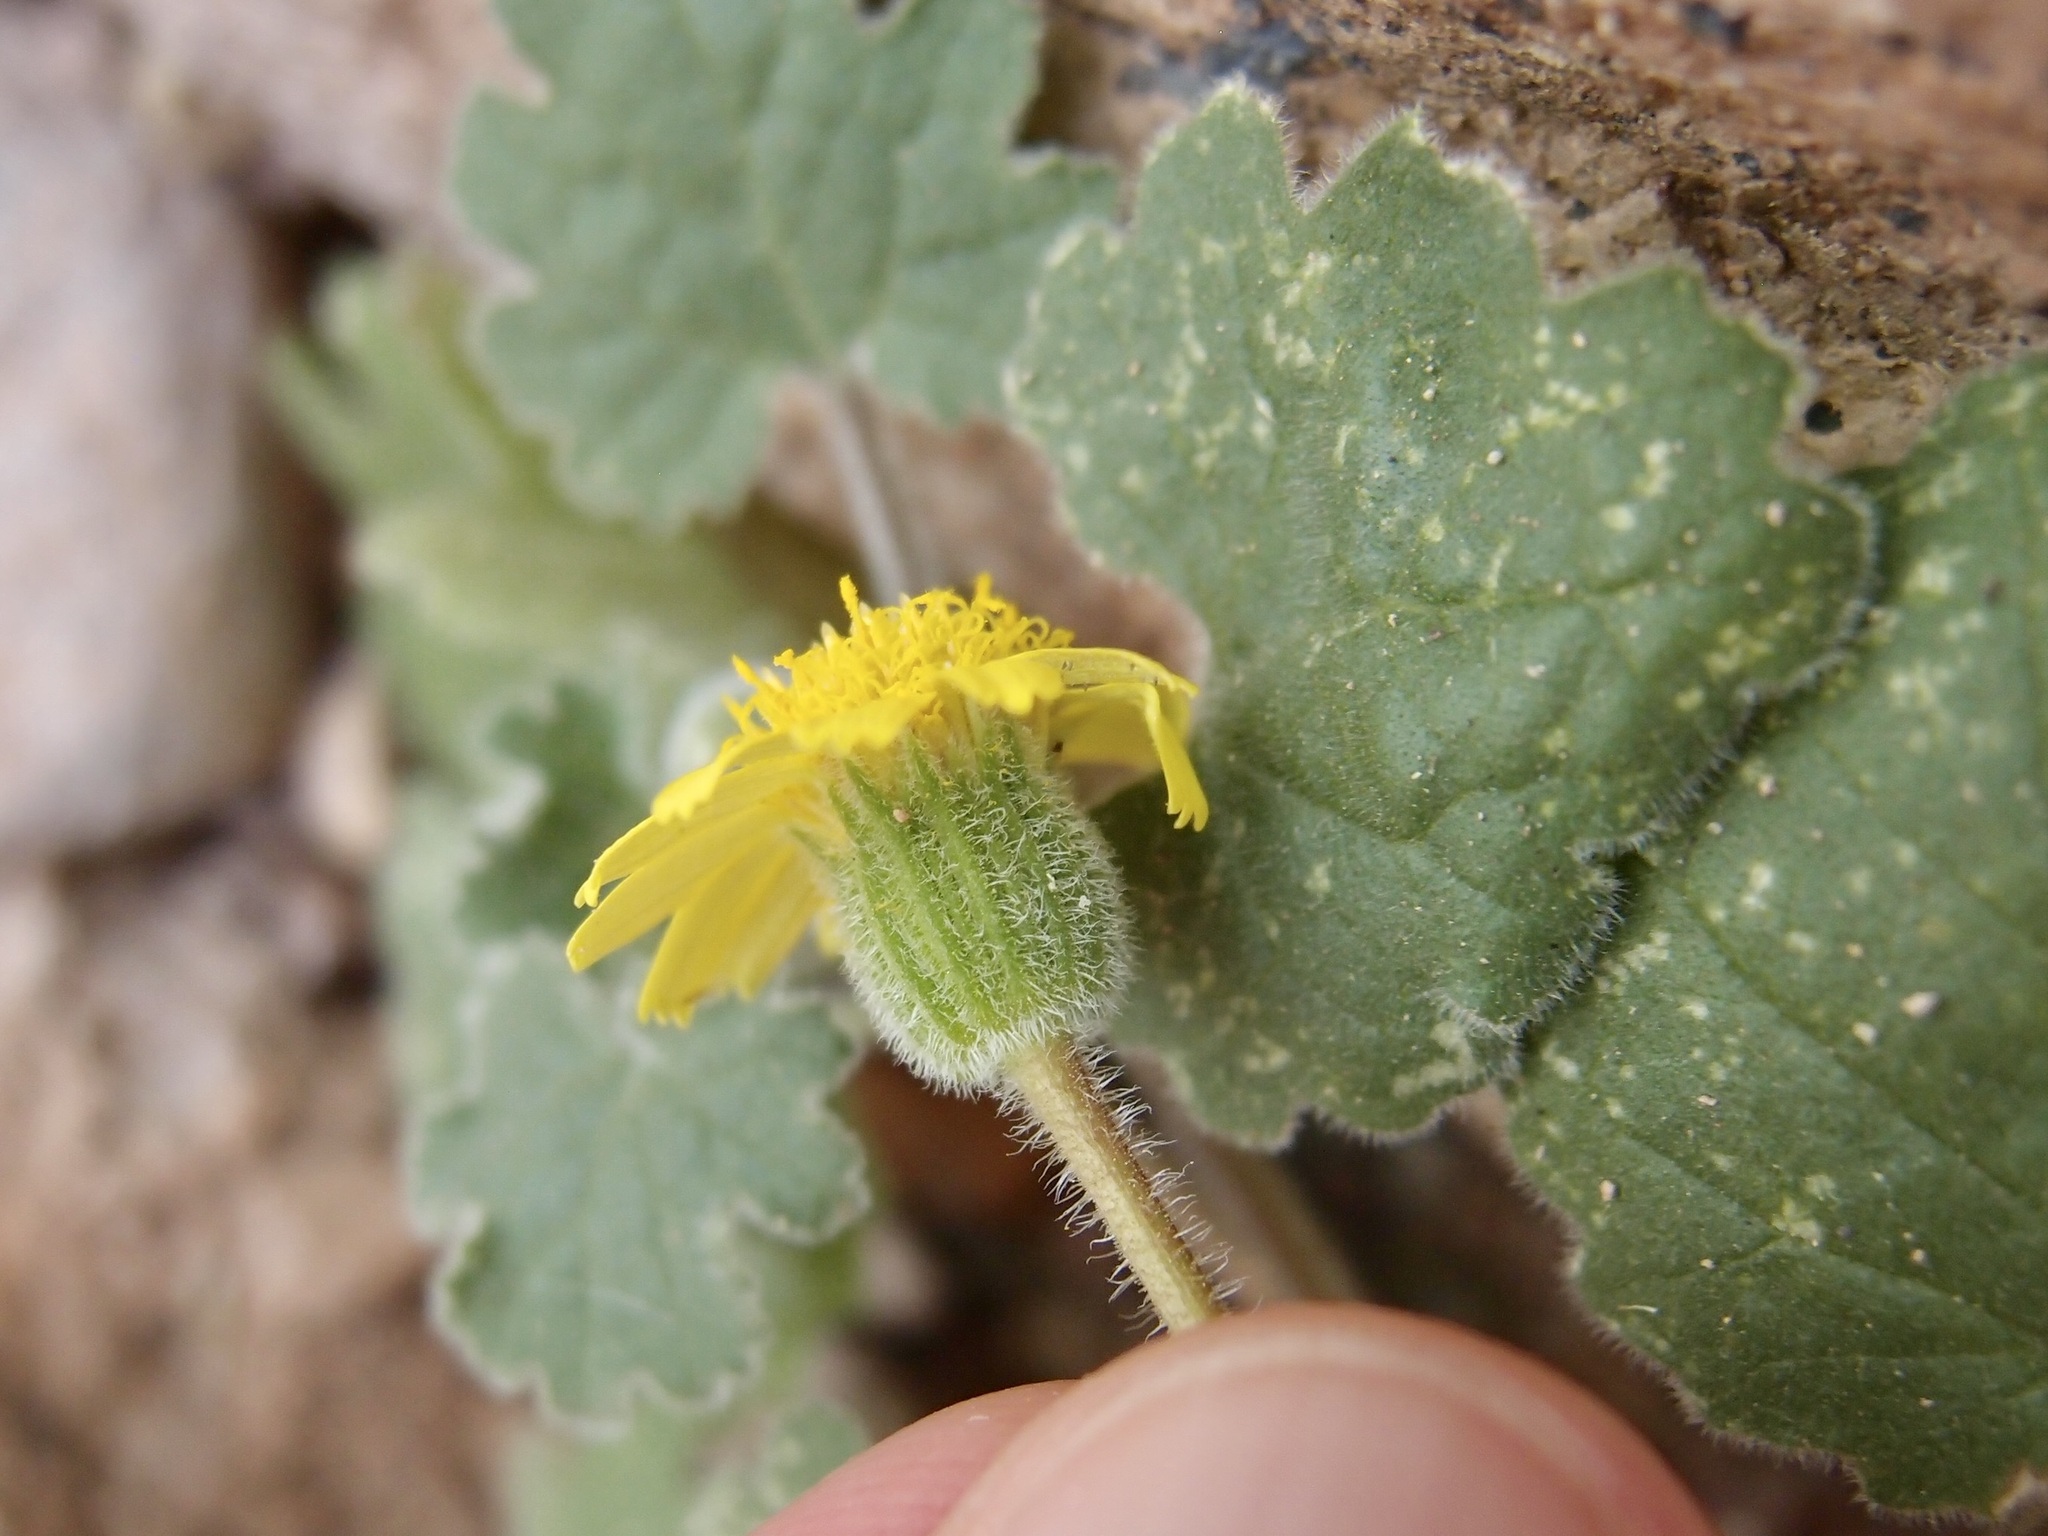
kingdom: Plantae
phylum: Tracheophyta
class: Magnoliopsida
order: Asterales
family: Asteraceae
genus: Laphamia
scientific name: Laphamia sanchezii
